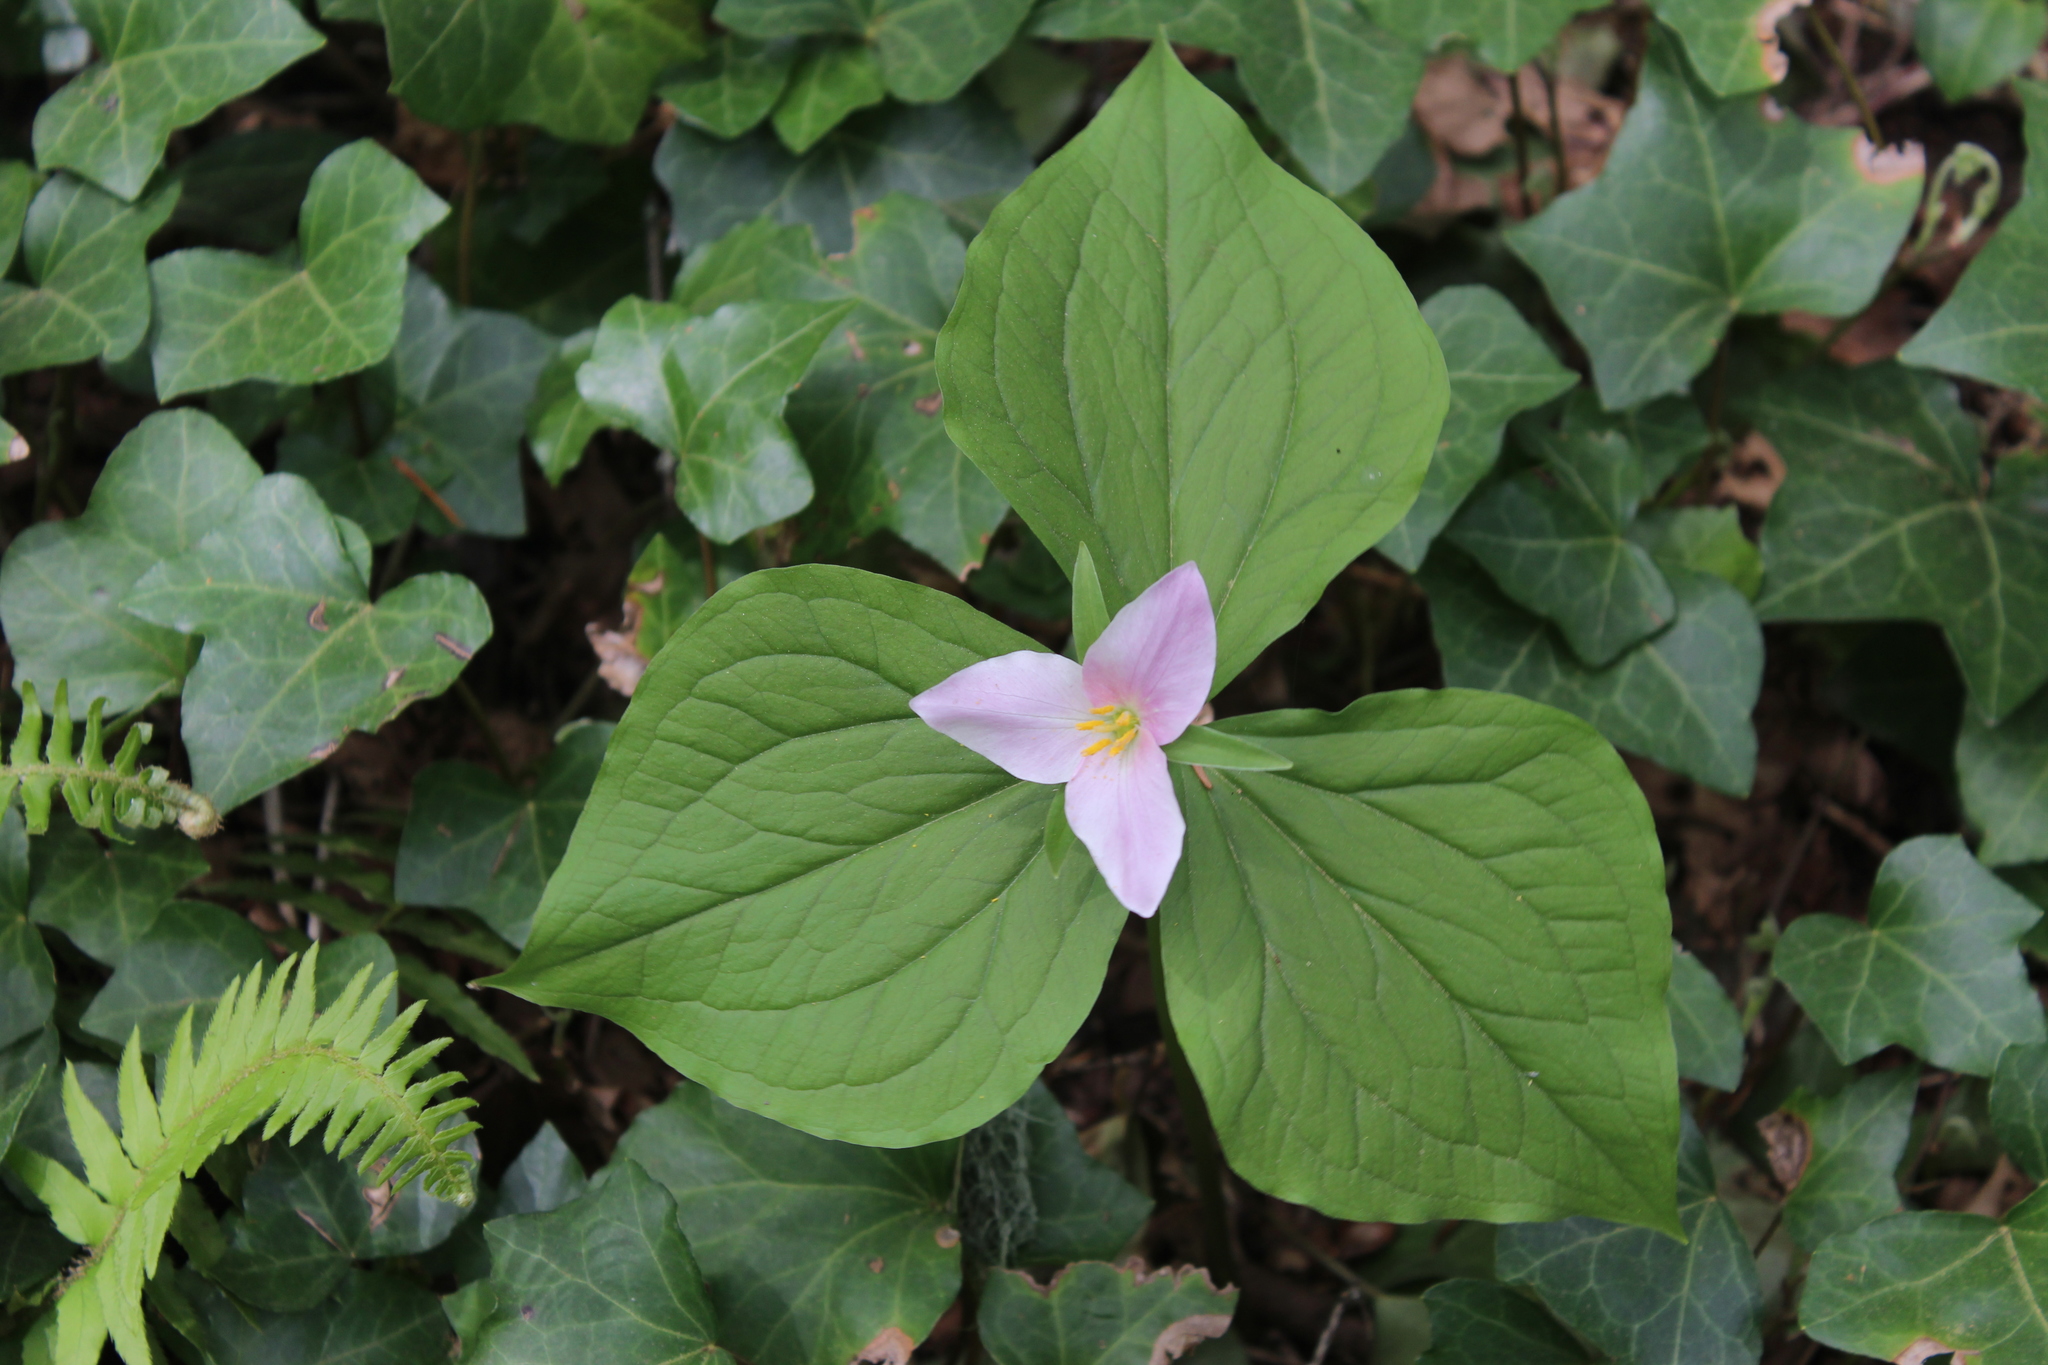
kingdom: Plantae
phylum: Tracheophyta
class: Liliopsida
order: Liliales
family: Melanthiaceae
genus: Trillium
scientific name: Trillium ovatum
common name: Pacific trillium
